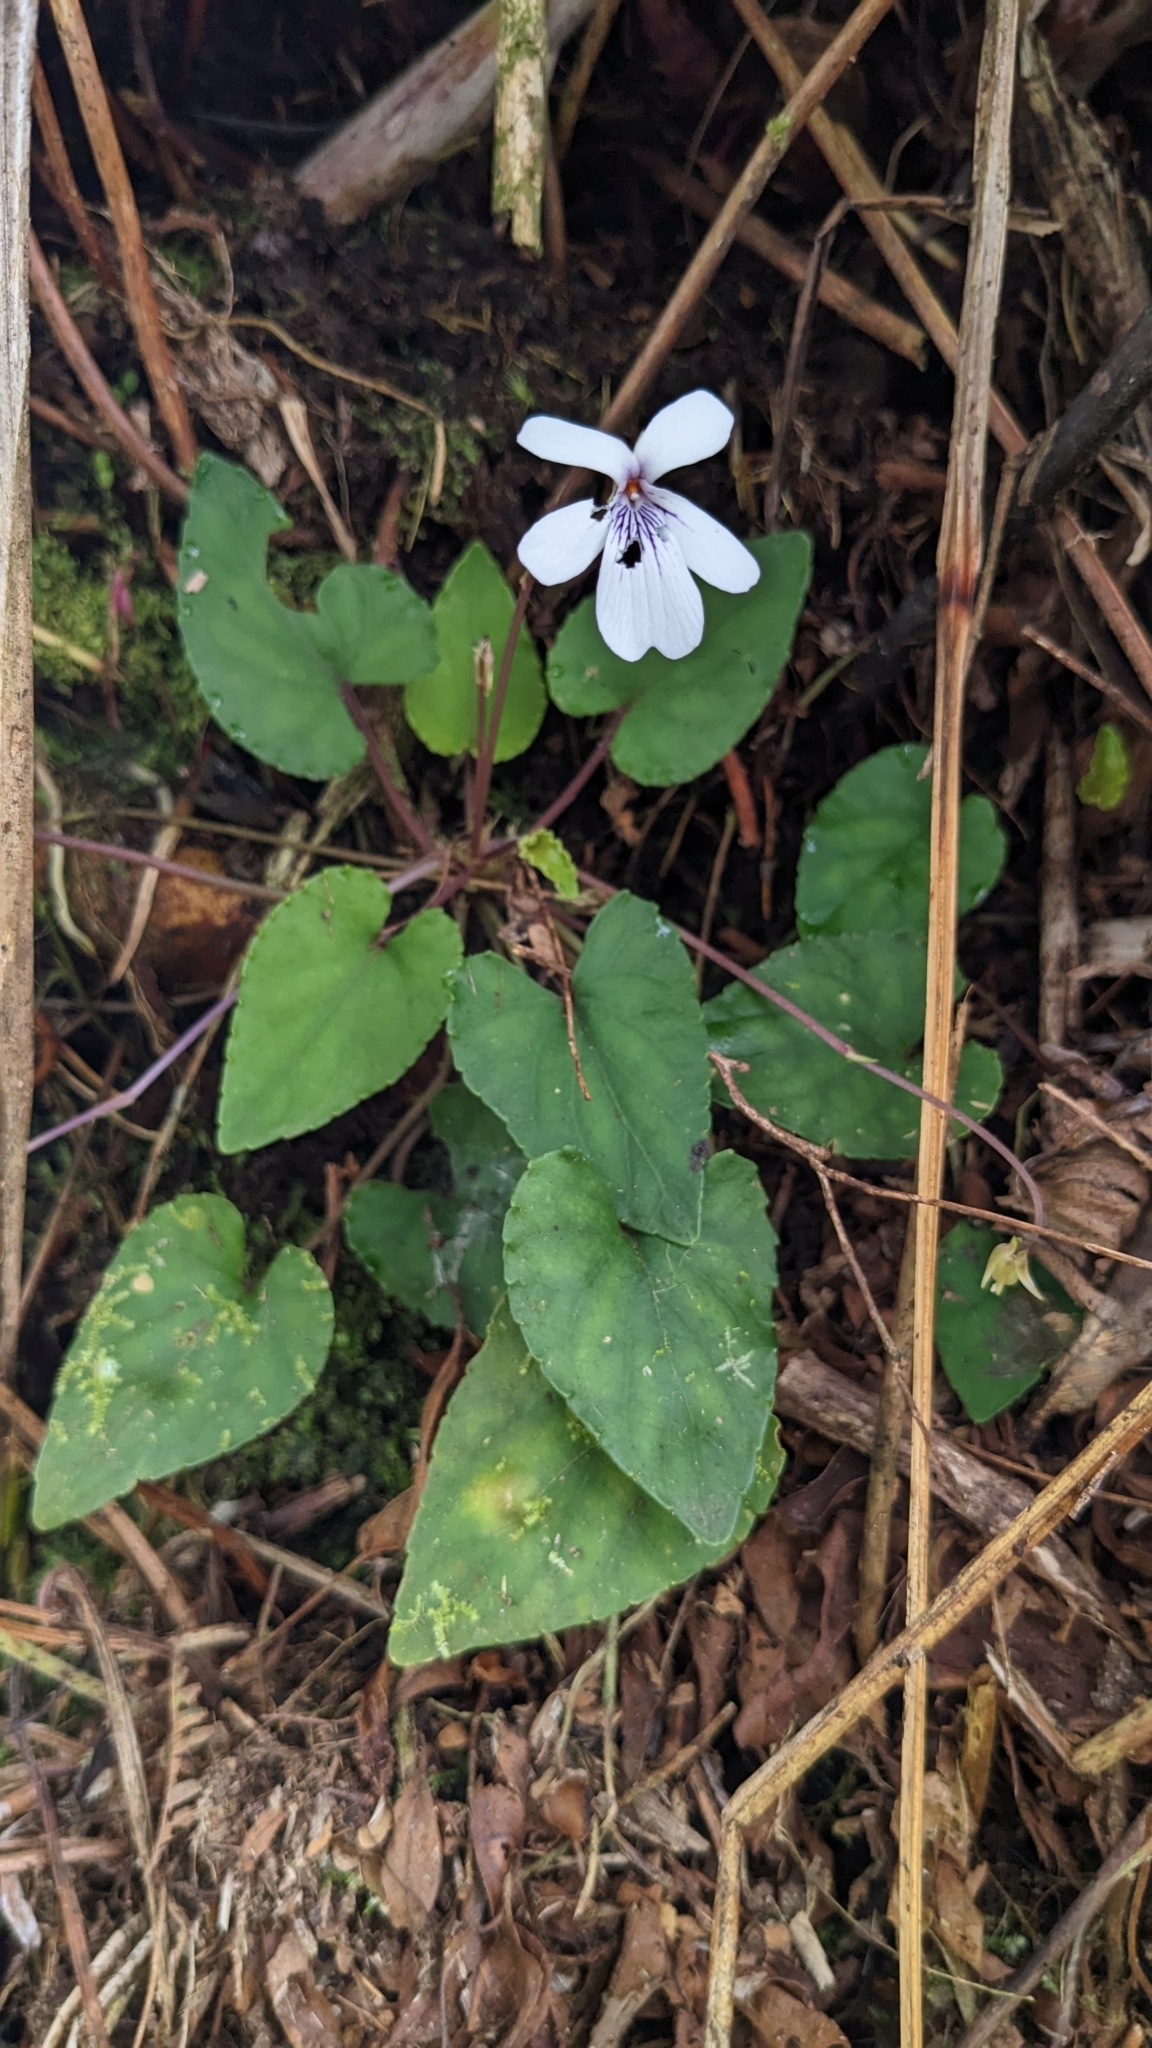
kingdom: Plantae
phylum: Tracheophyta
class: Magnoliopsida
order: Malpighiales
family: Violaceae
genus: Viola
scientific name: Viola formosana
